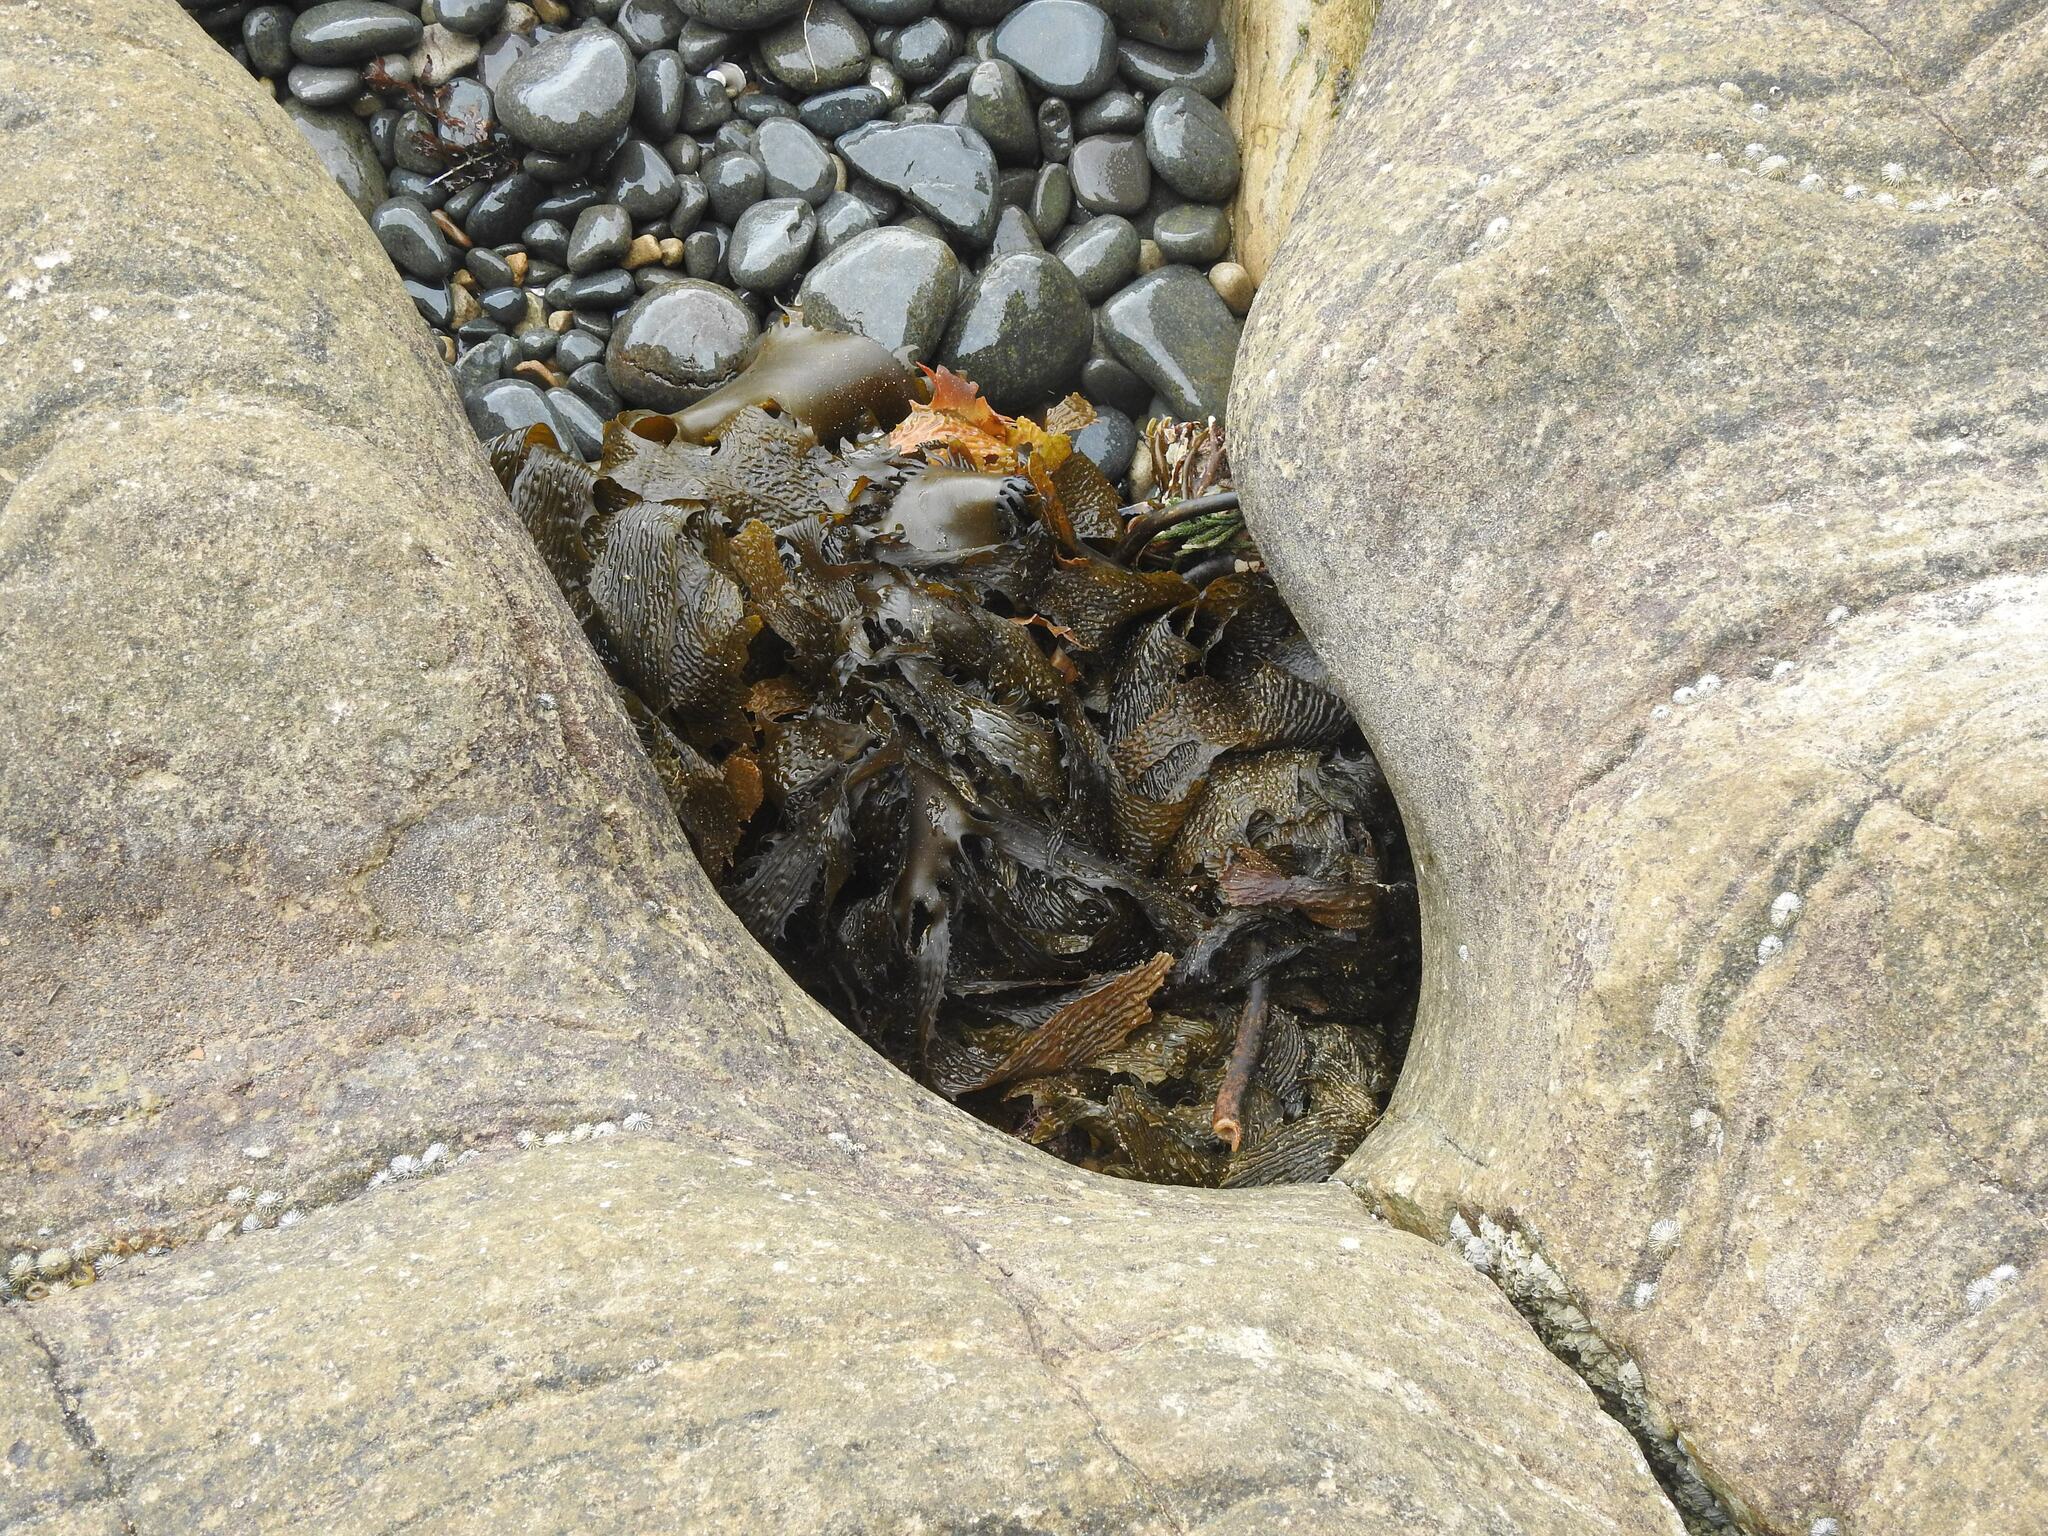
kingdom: Chromista
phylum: Ochrophyta
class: Phaeophyceae
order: Laminariales
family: Lessoniaceae
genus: Ecklonia
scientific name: Ecklonia radiata
